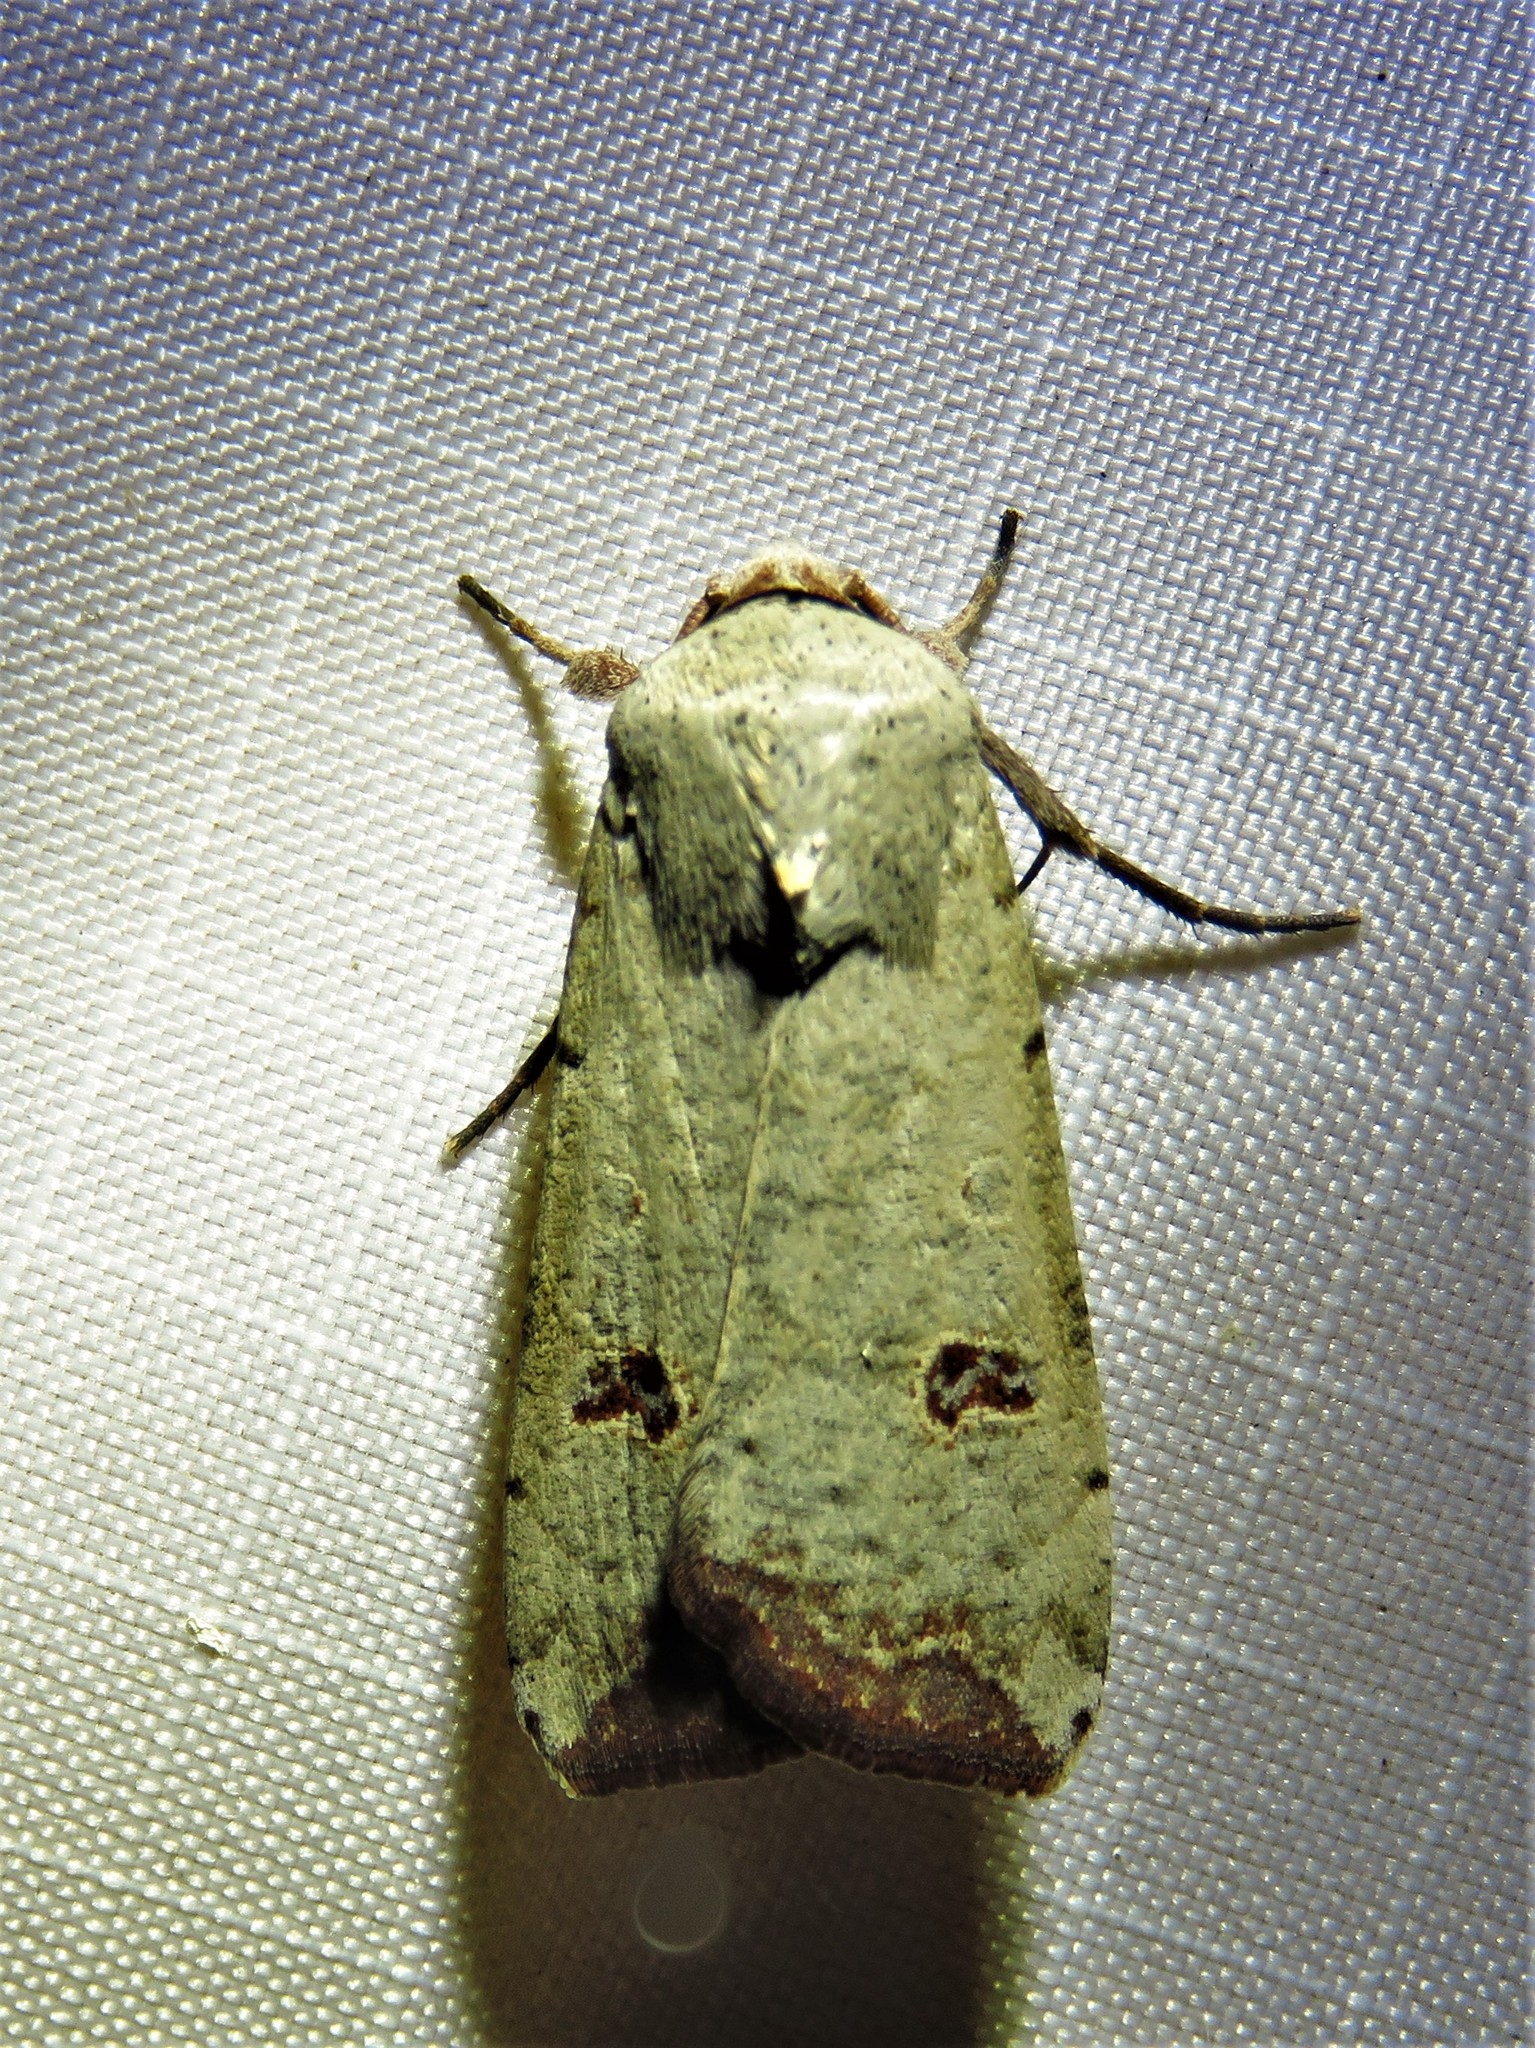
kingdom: Animalia
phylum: Arthropoda
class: Insecta
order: Lepidoptera
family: Noctuidae
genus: Anicla
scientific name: Anicla infecta
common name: Green cutworm
